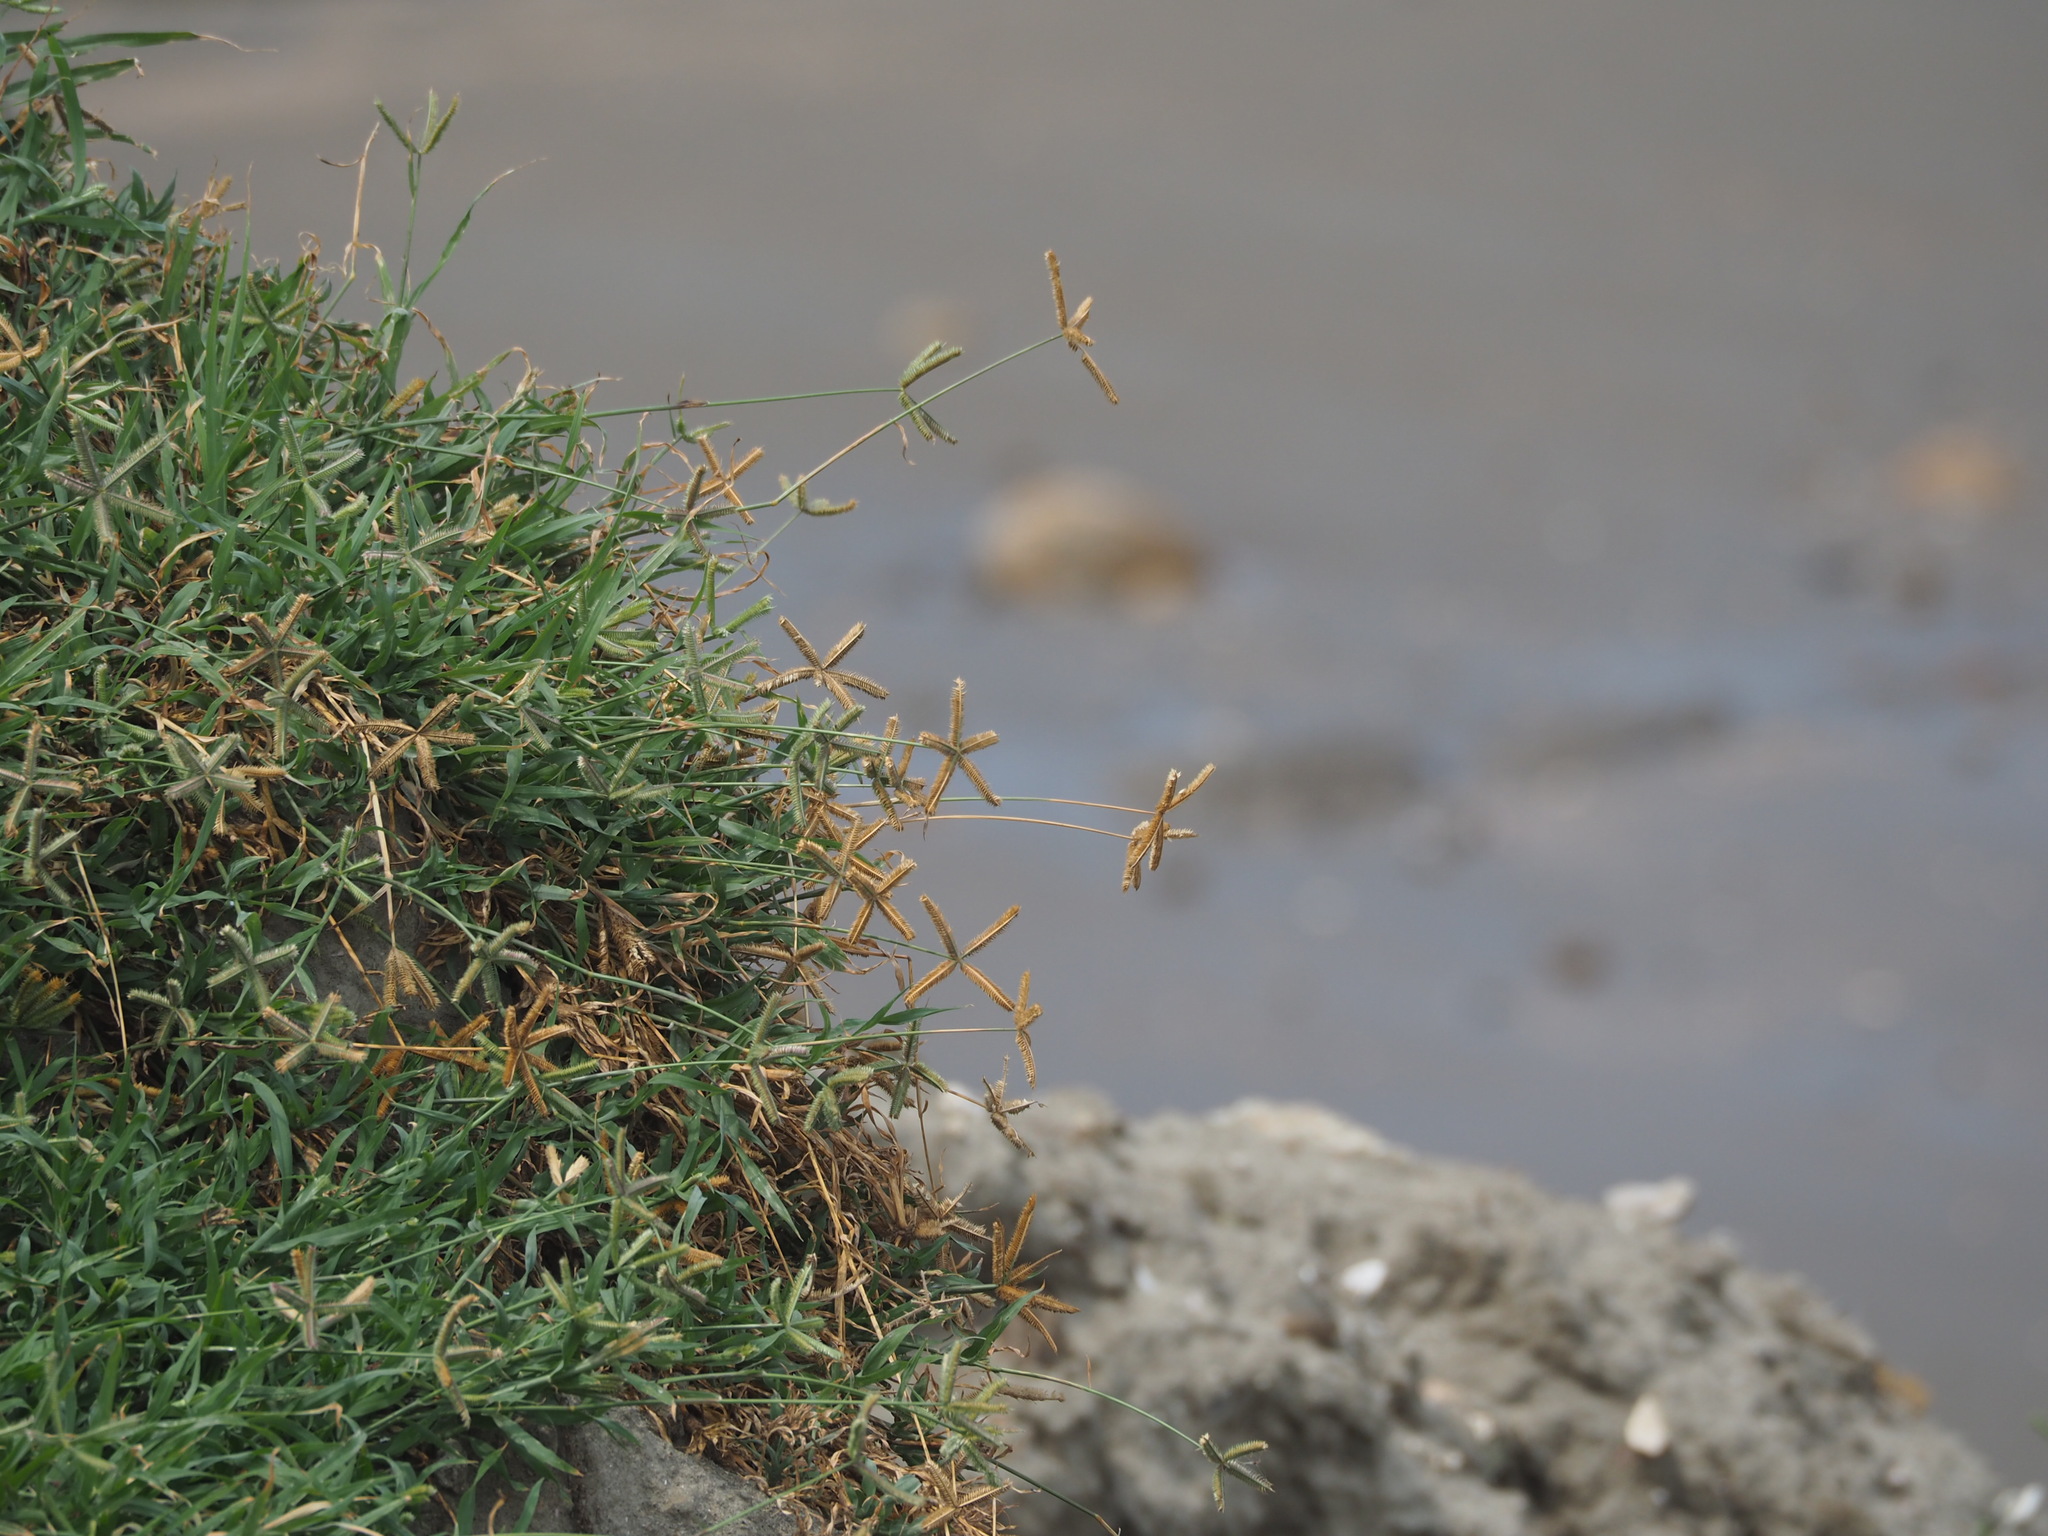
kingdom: Plantae
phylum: Tracheophyta
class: Liliopsida
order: Poales
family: Poaceae
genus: Dactyloctenium
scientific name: Dactyloctenium aegyptium
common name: Egyptian grass
